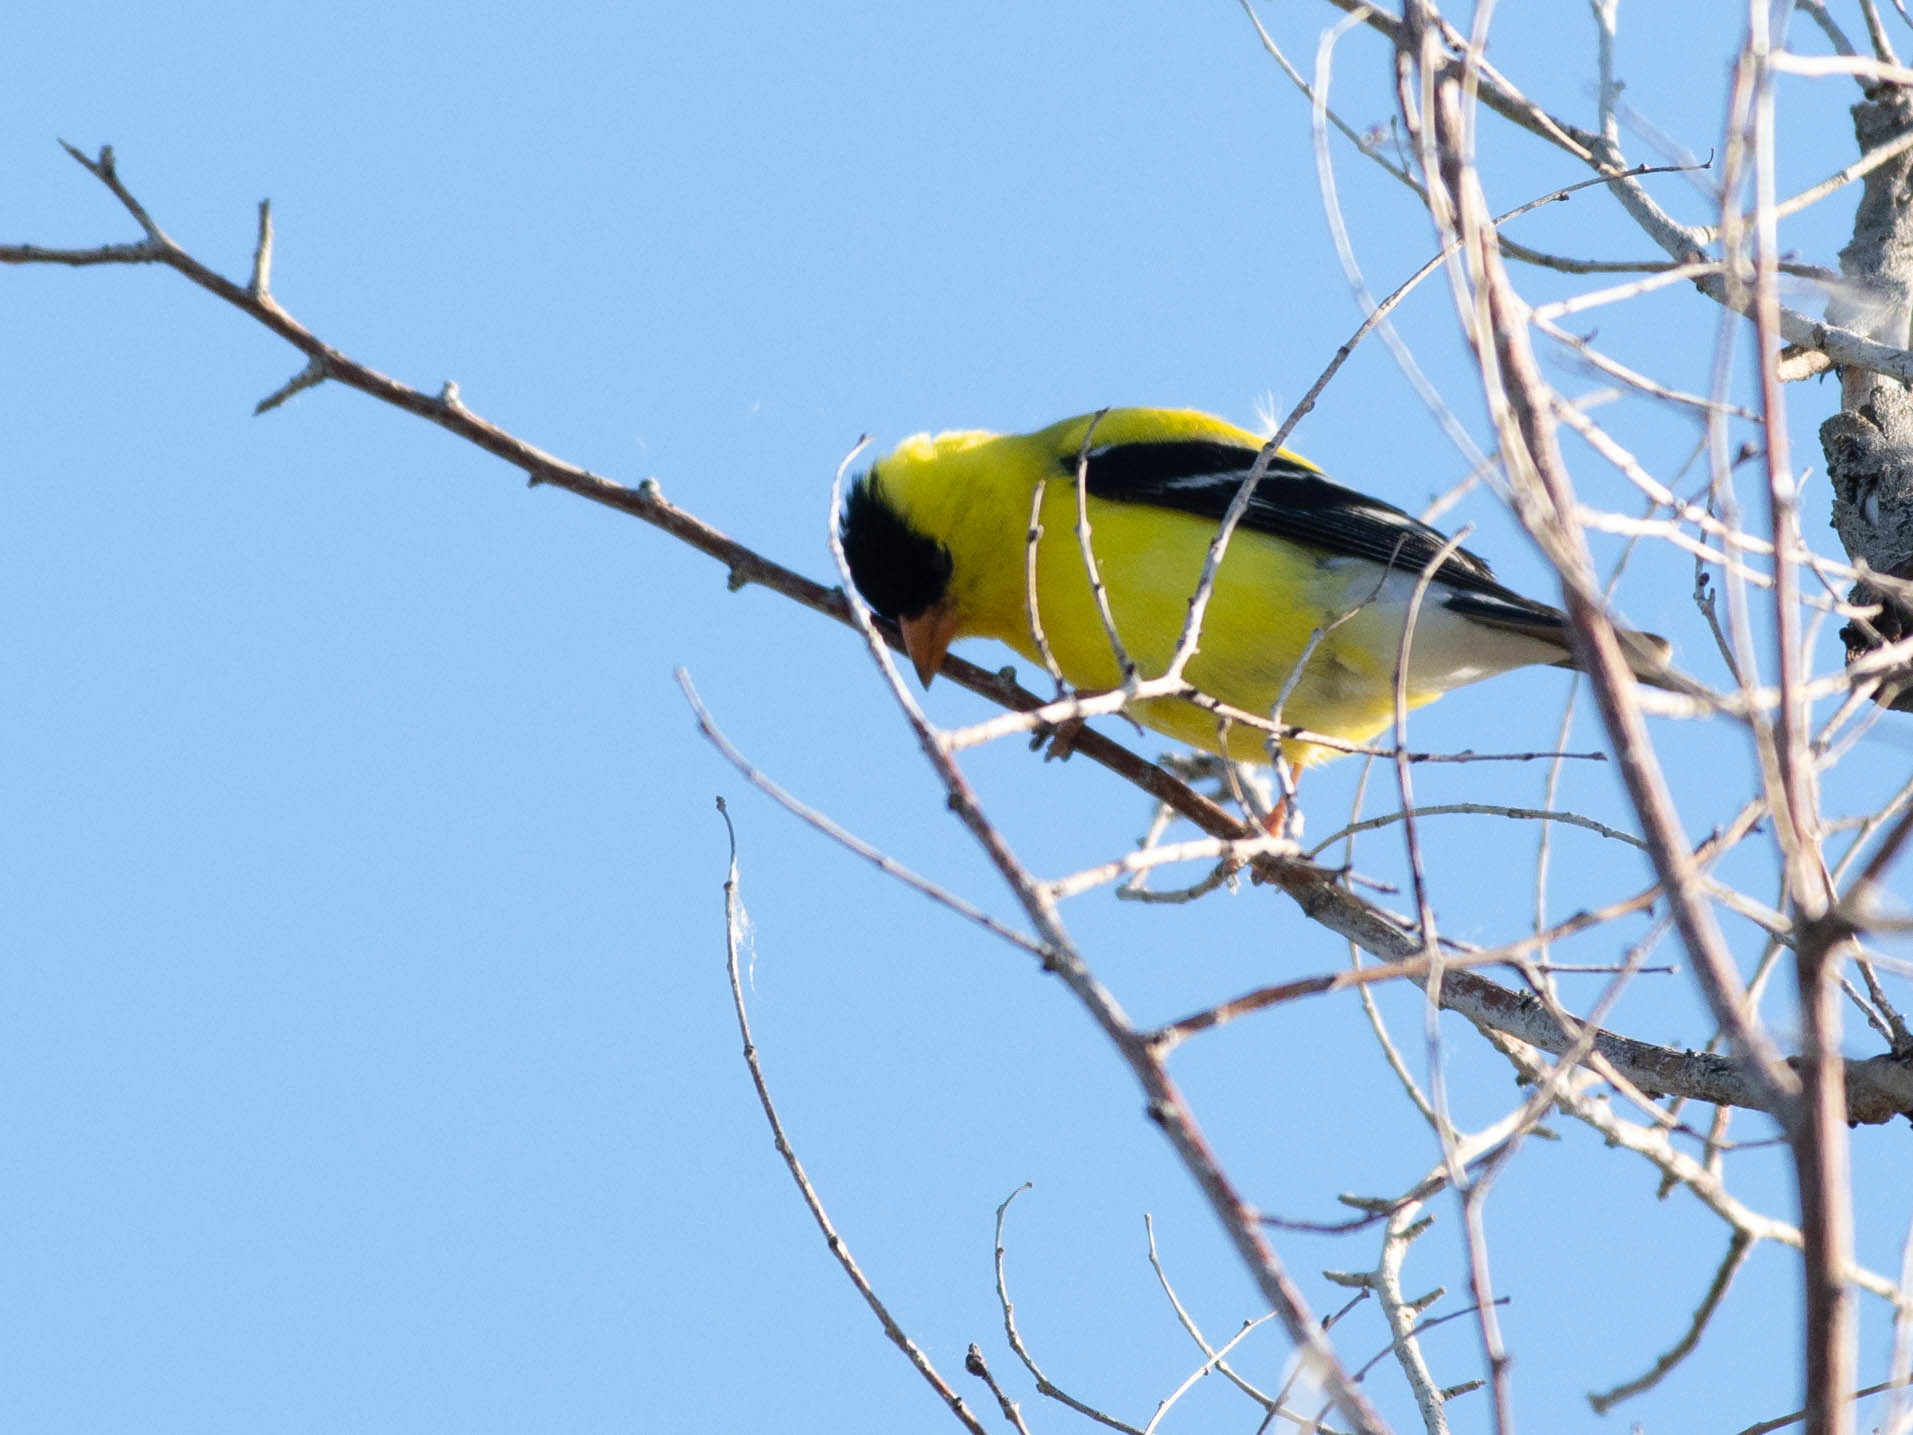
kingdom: Animalia
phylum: Chordata
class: Aves
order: Passeriformes
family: Fringillidae
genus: Spinus
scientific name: Spinus tristis
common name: American goldfinch
